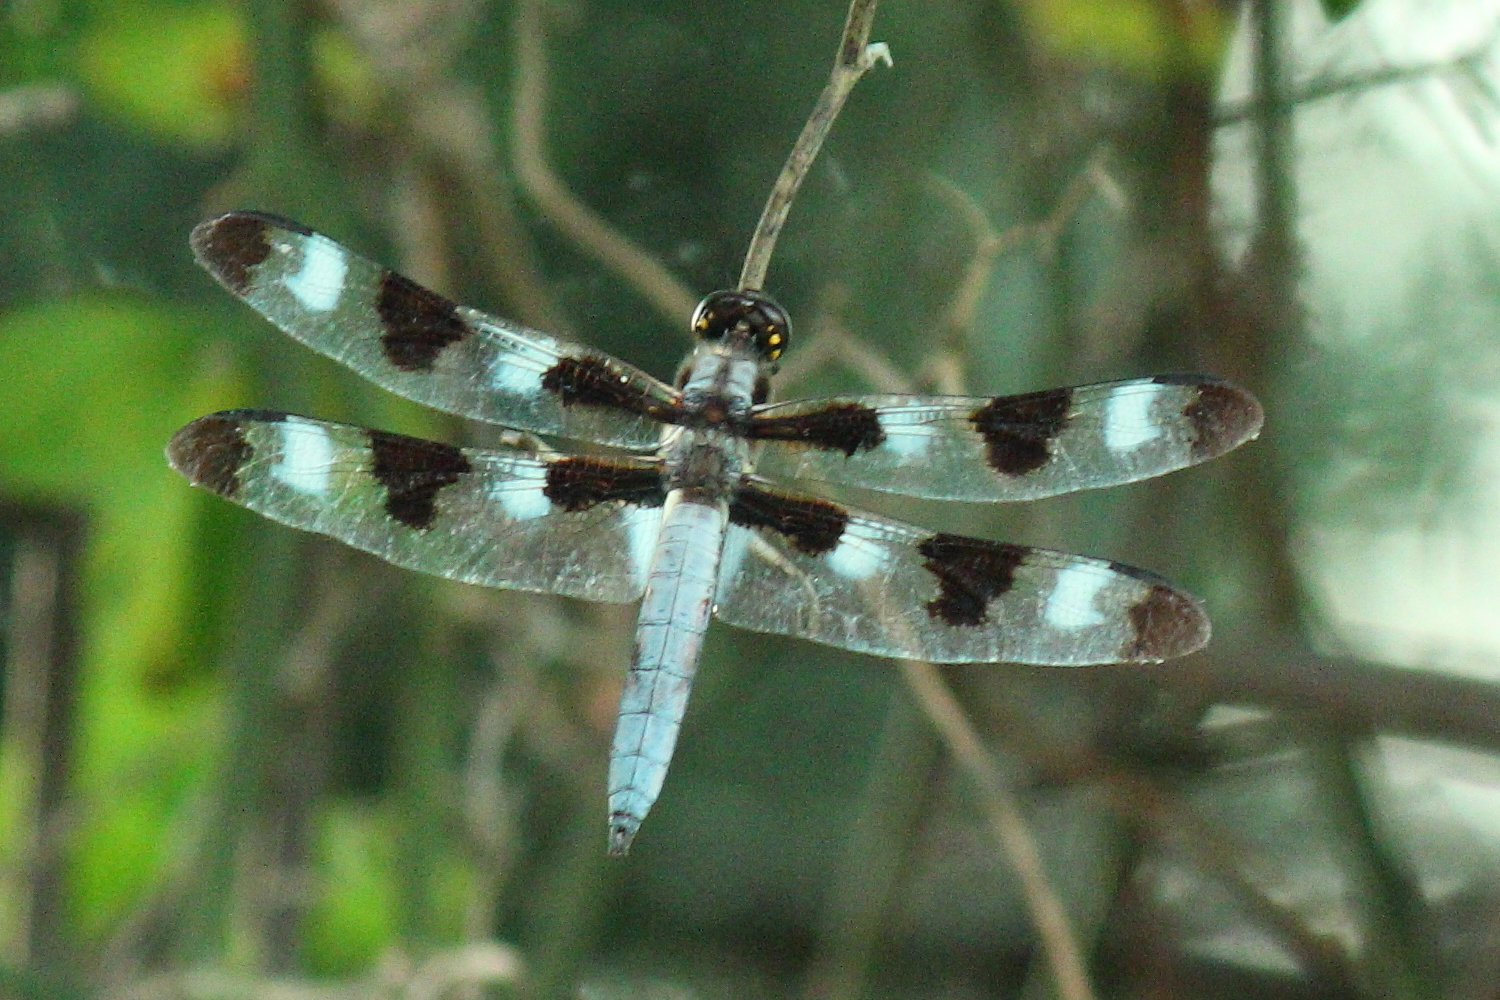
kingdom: Animalia
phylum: Arthropoda
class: Insecta
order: Odonata
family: Libellulidae
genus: Libellula
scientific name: Libellula pulchella
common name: Twelve-spotted skimmer
